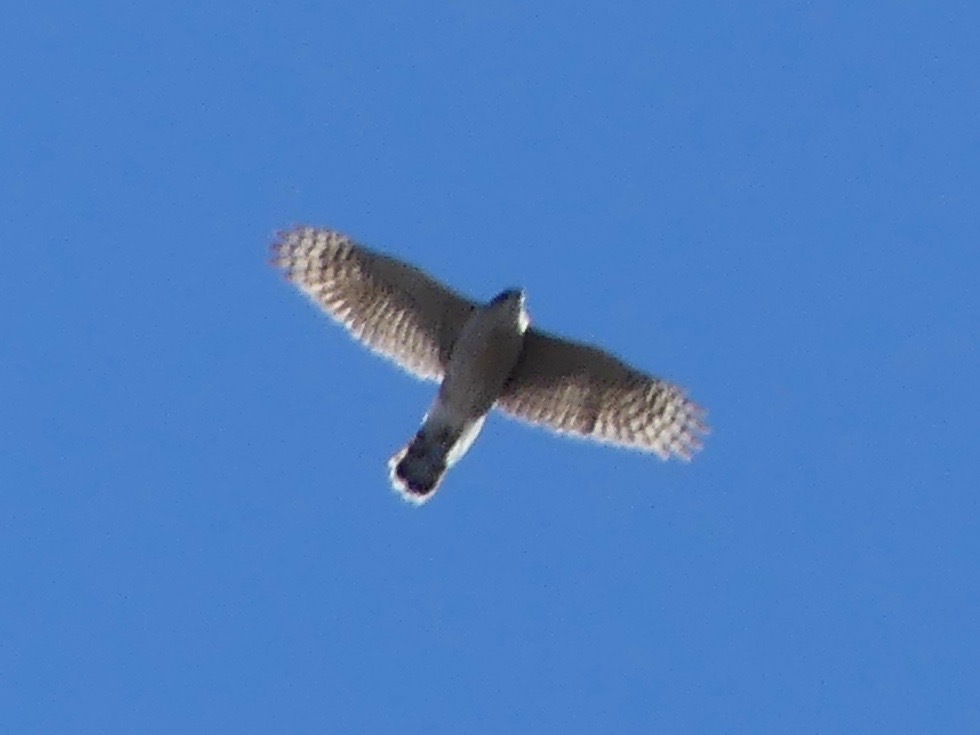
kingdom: Animalia
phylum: Chordata
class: Aves
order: Accipitriformes
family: Accipitridae
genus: Accipiter
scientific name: Accipiter cooperii
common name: Cooper's hawk
